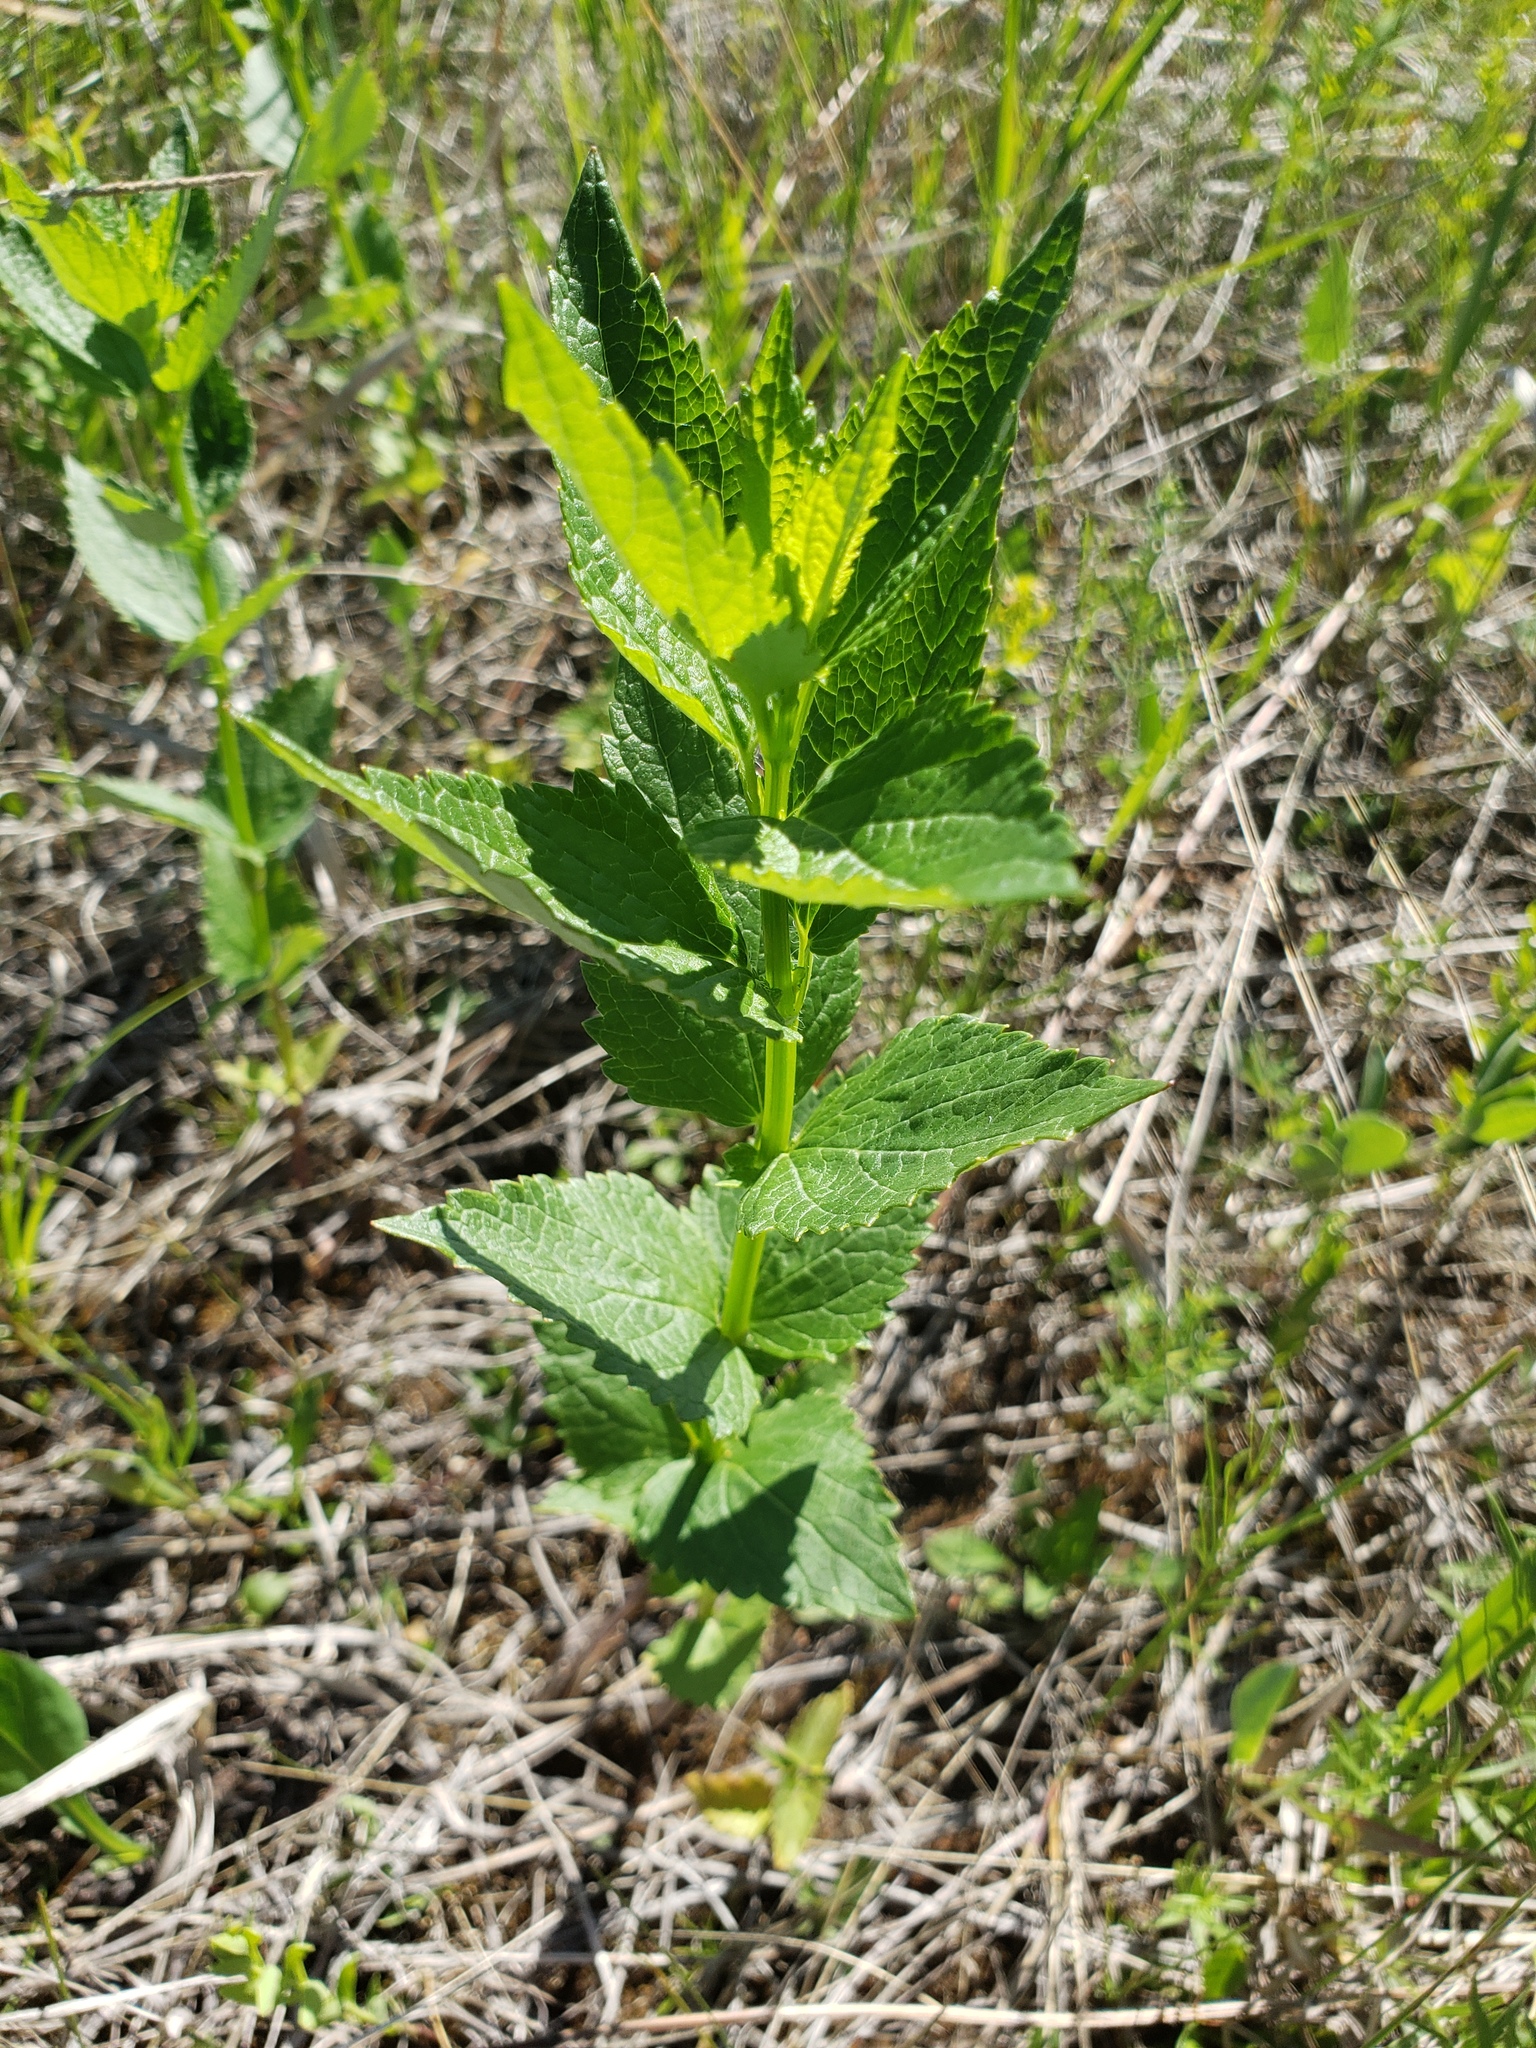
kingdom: Plantae
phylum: Tracheophyta
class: Magnoliopsida
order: Lamiales
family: Lamiaceae
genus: Agastache
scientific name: Agastache foeniculum
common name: Anise hyssop
